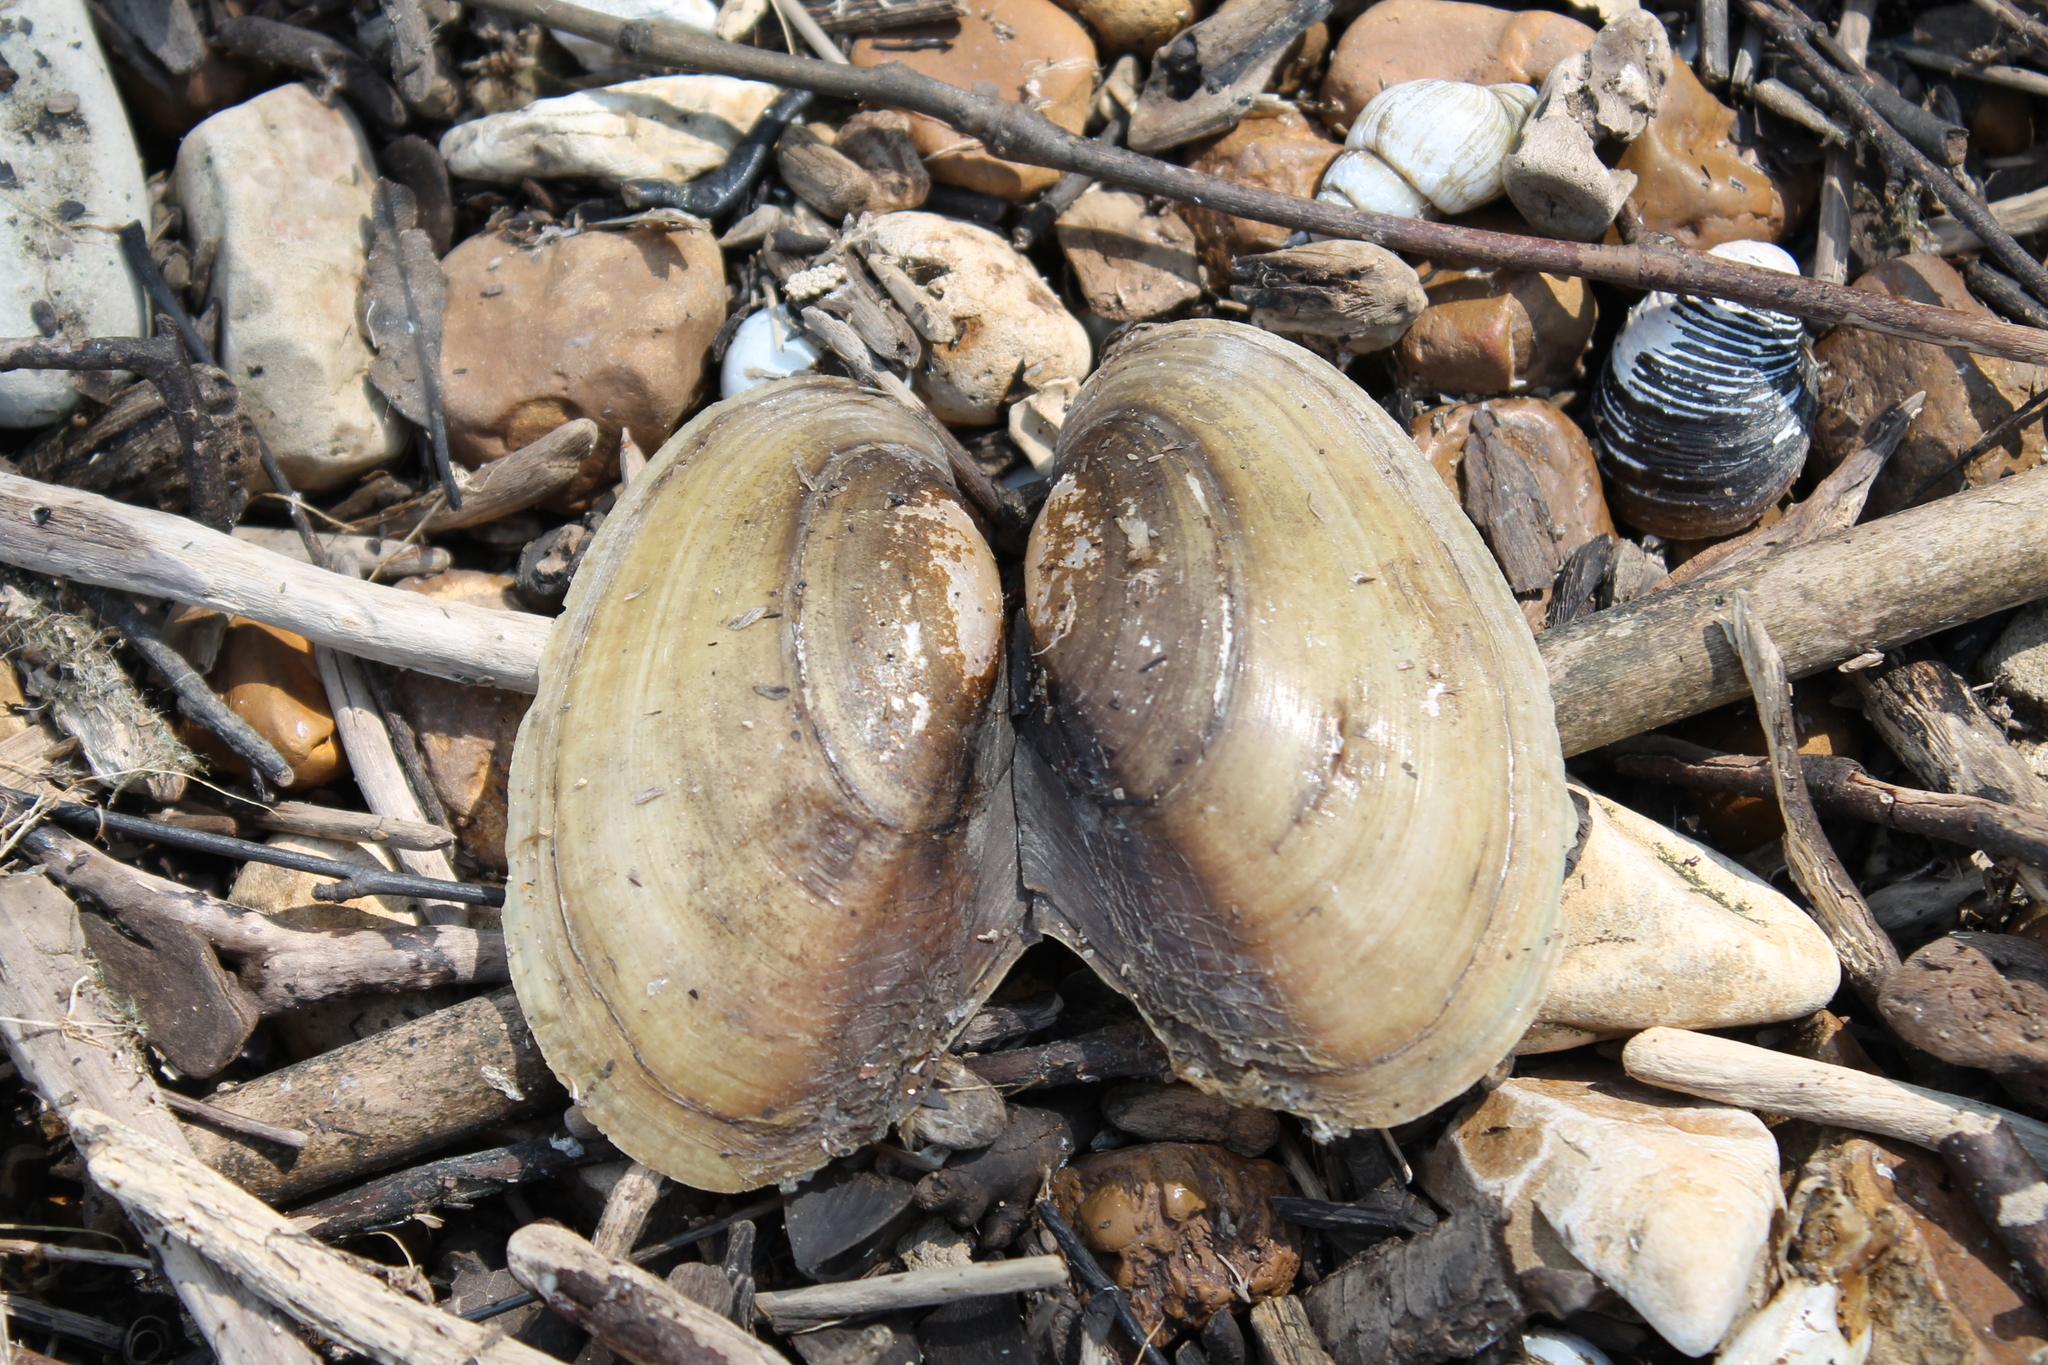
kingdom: Animalia
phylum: Mollusca
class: Bivalvia
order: Unionida
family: Unionidae
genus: Potamilus
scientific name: Potamilus fragilis
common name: Fragile papershell
